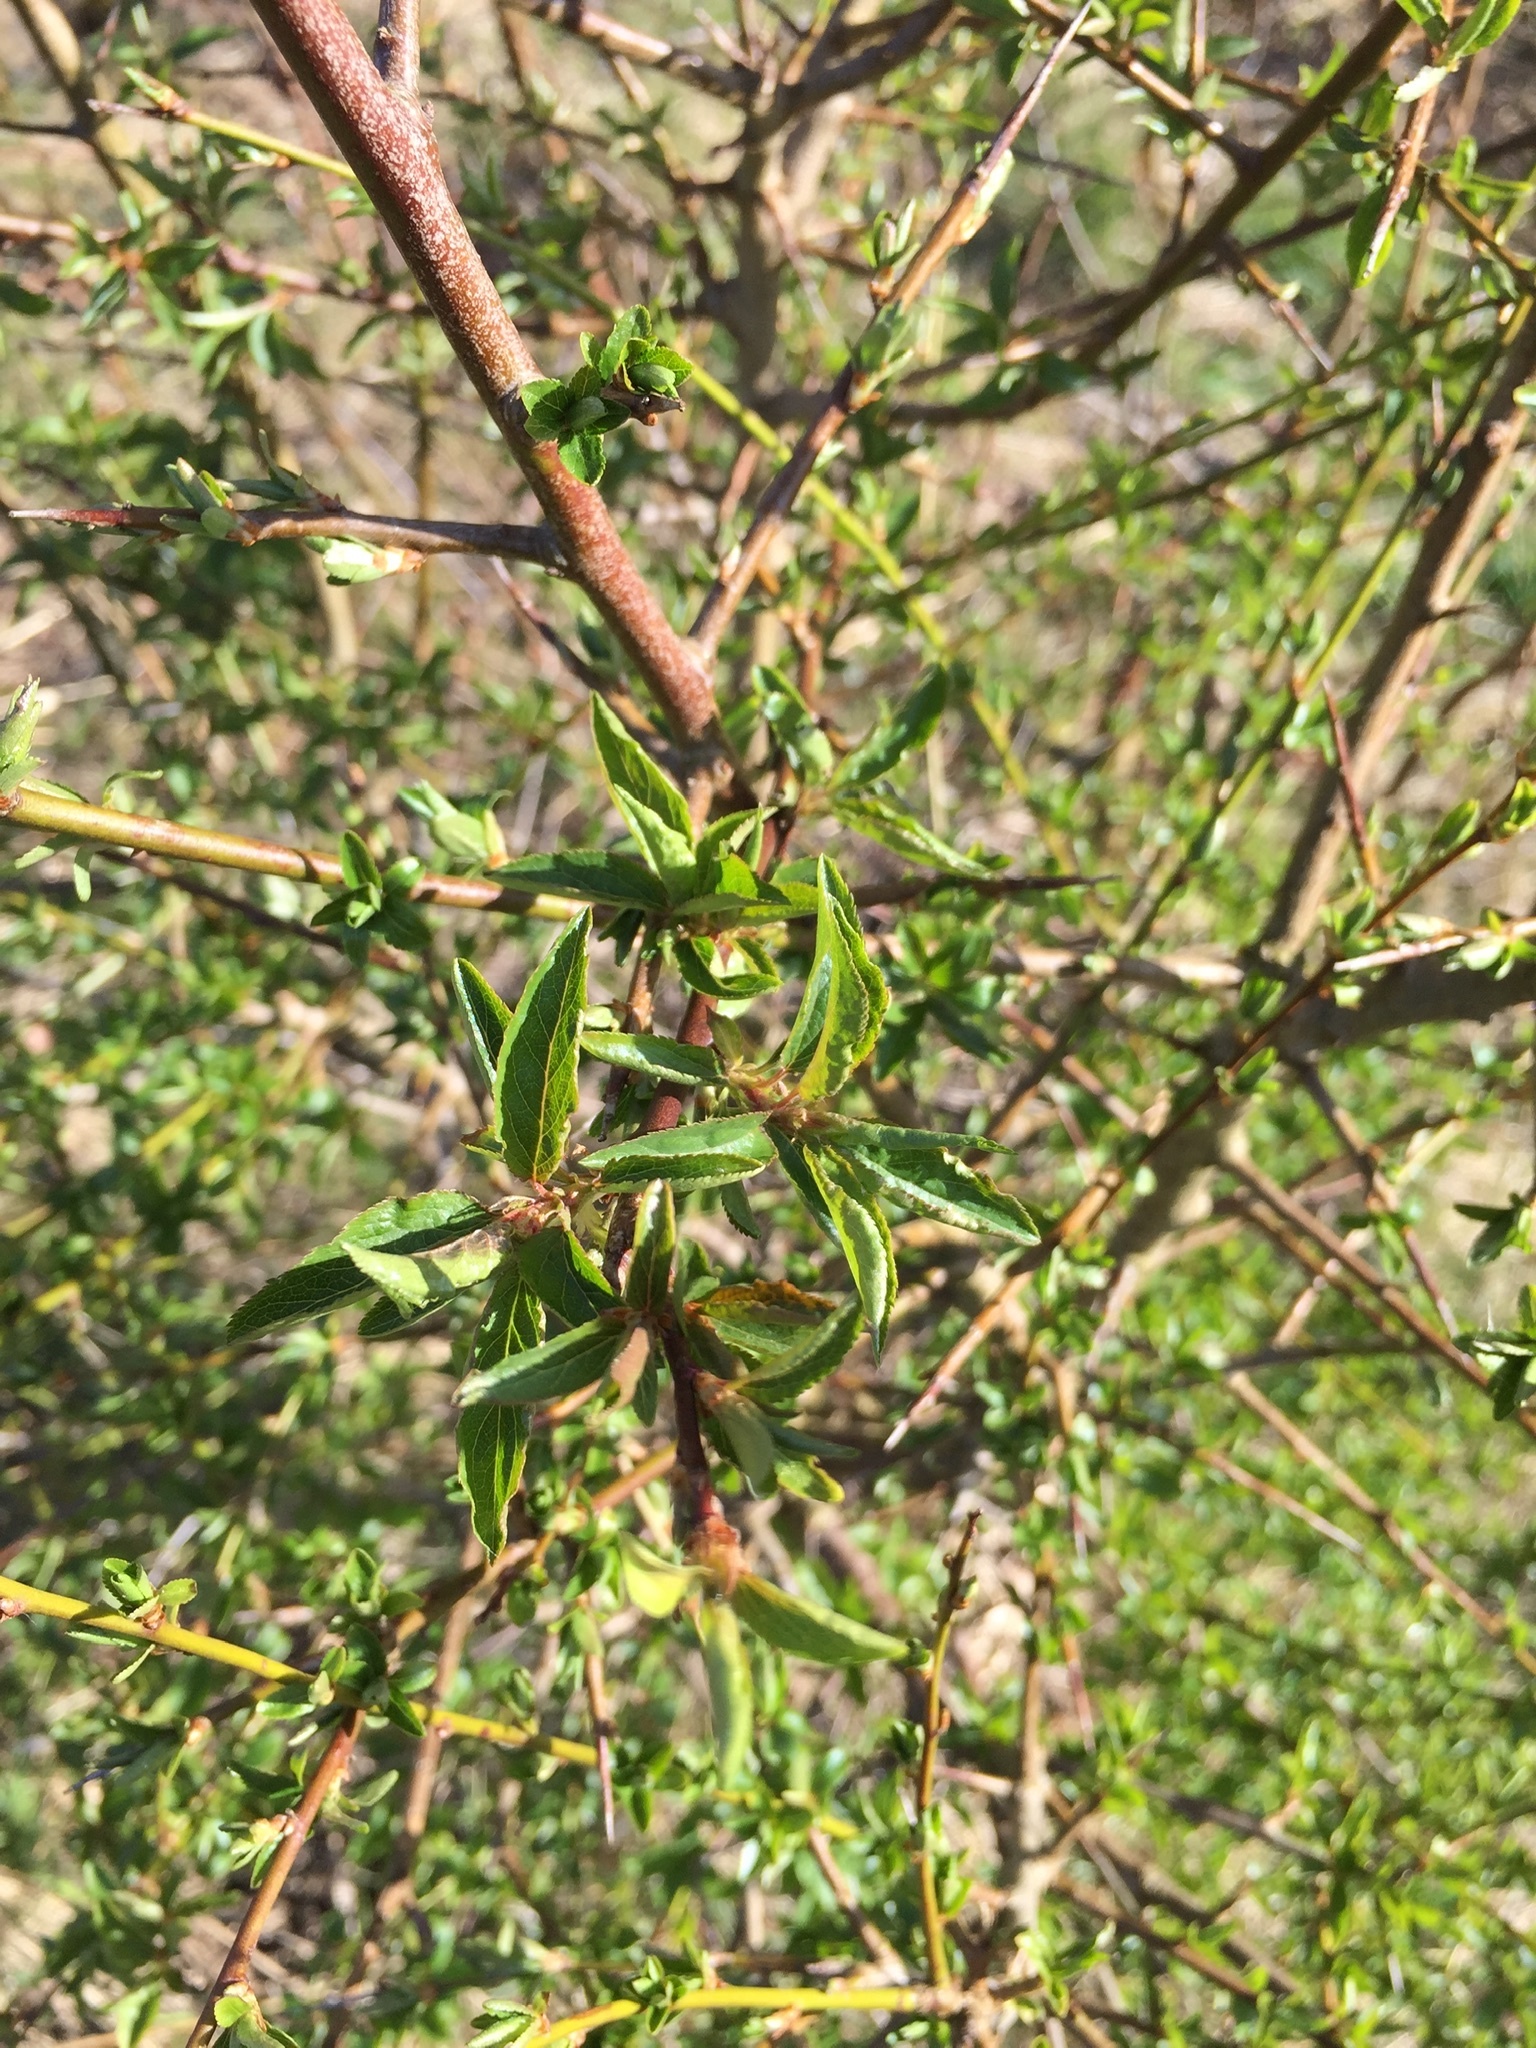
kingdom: Plantae
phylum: Tracheophyta
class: Magnoliopsida
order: Rosales
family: Rosaceae
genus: Prunus
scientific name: Prunus spinosa
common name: Blackthorn
